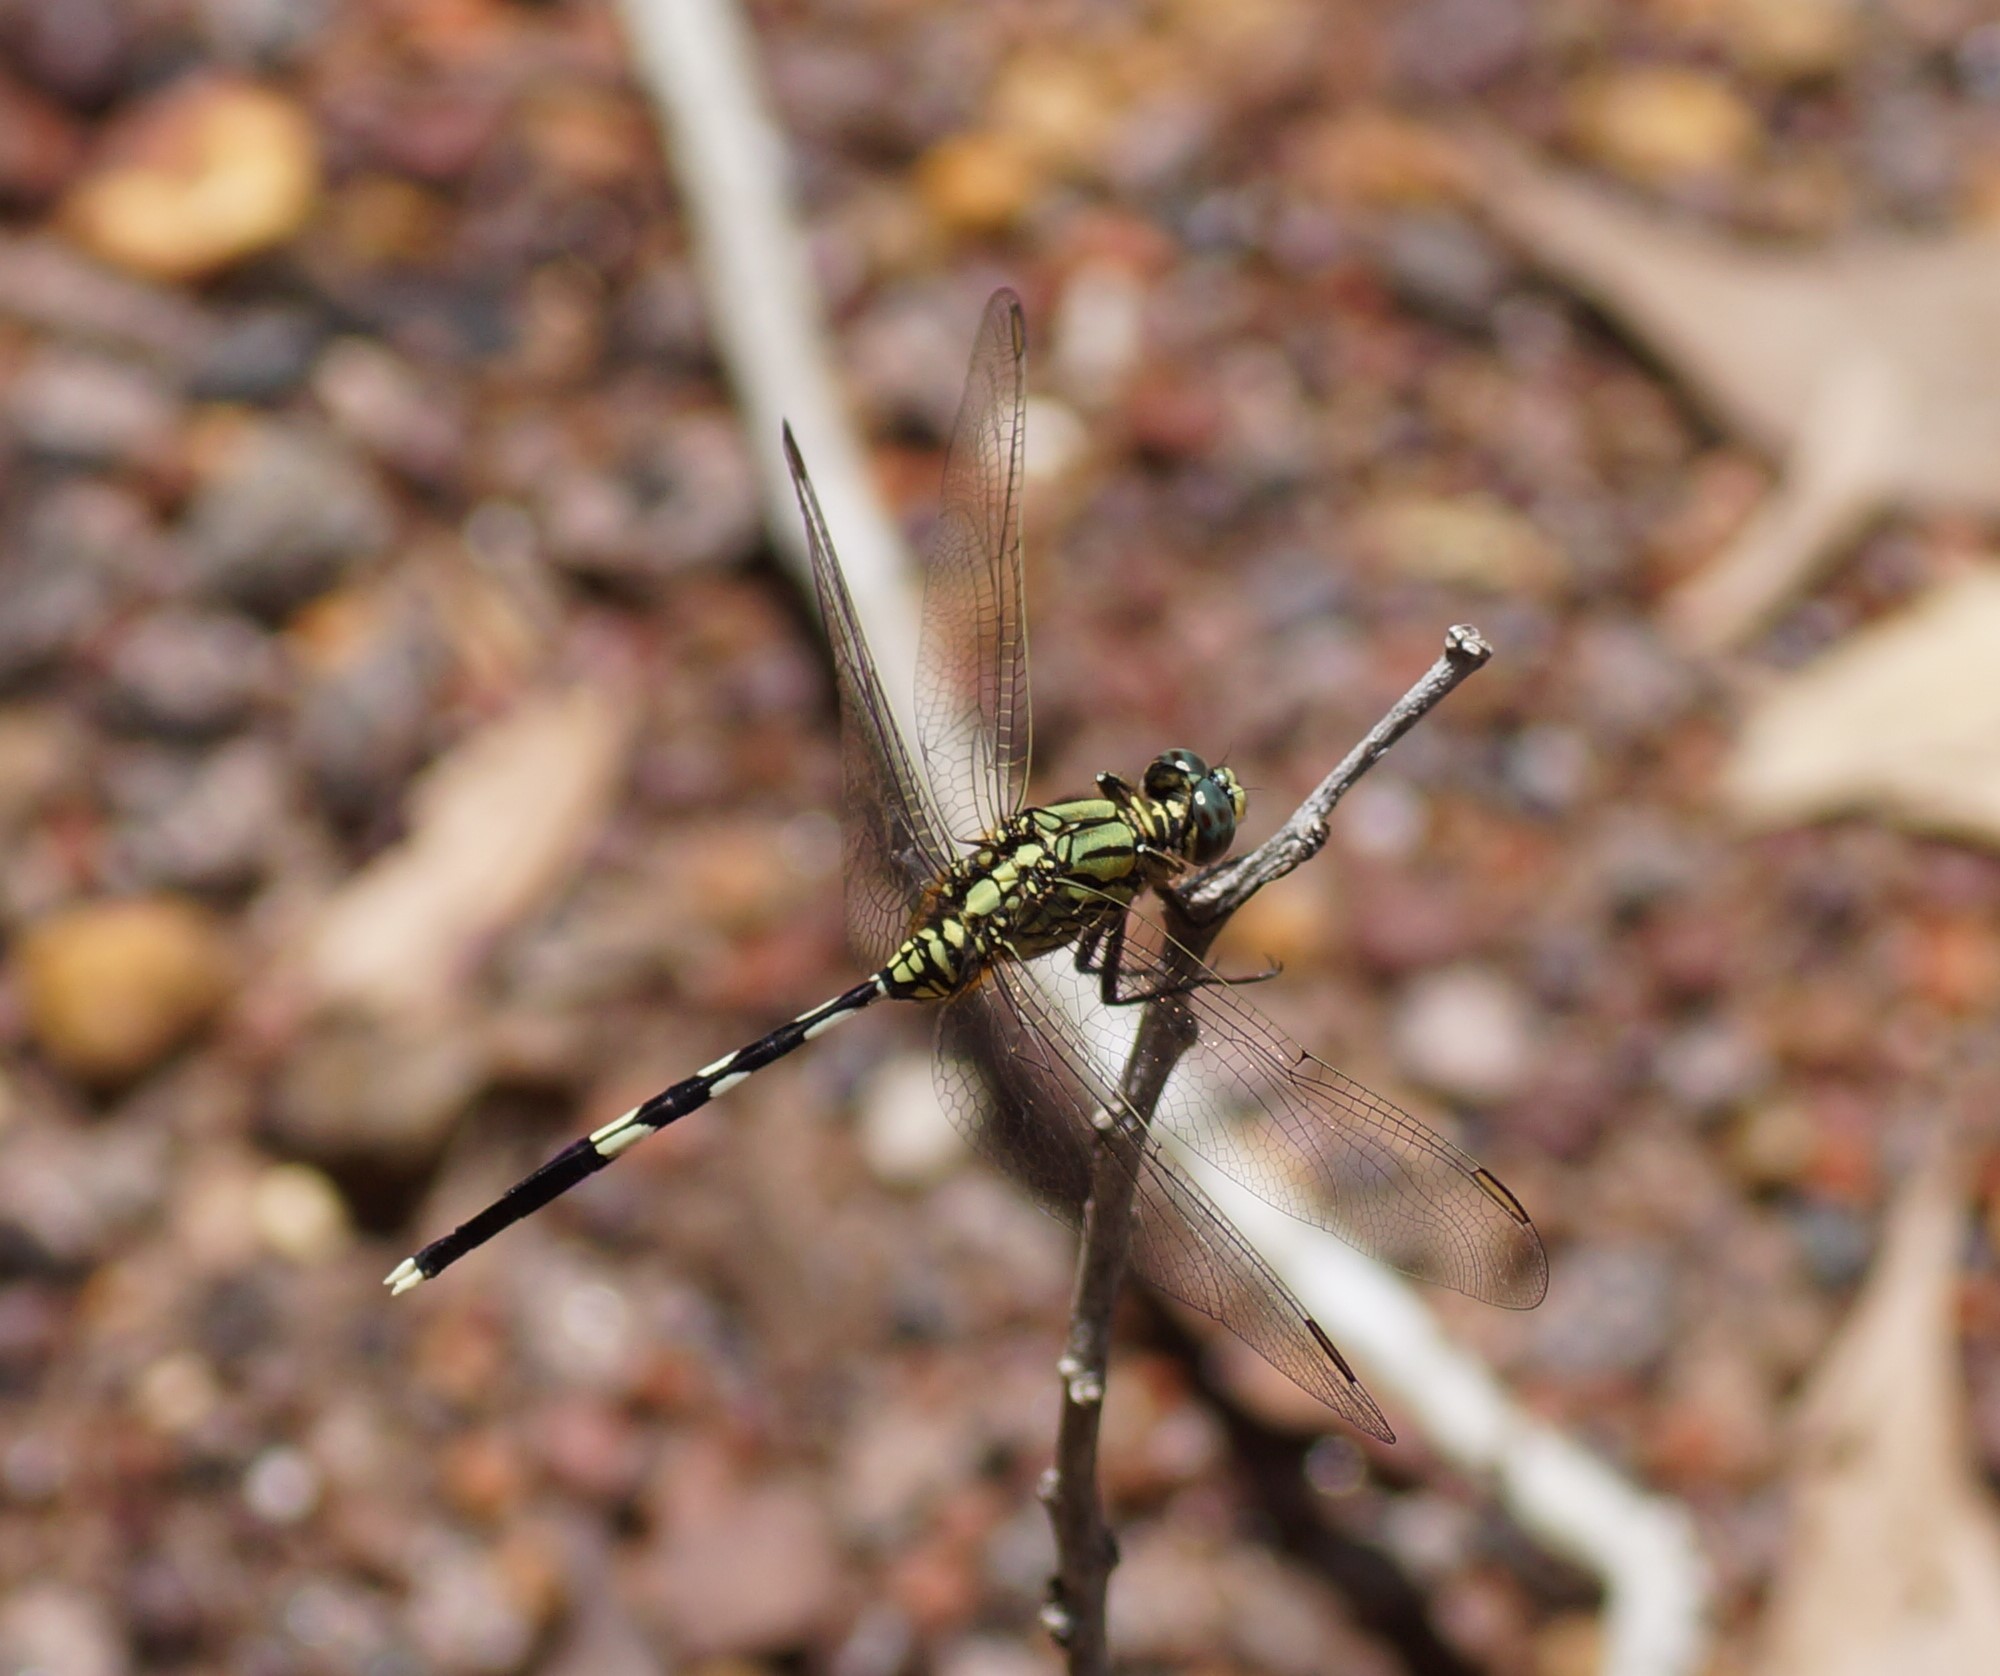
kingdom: Animalia
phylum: Arthropoda
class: Insecta
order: Odonata
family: Libellulidae
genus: Orthetrum
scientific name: Orthetrum sabina
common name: Slender skimmer
